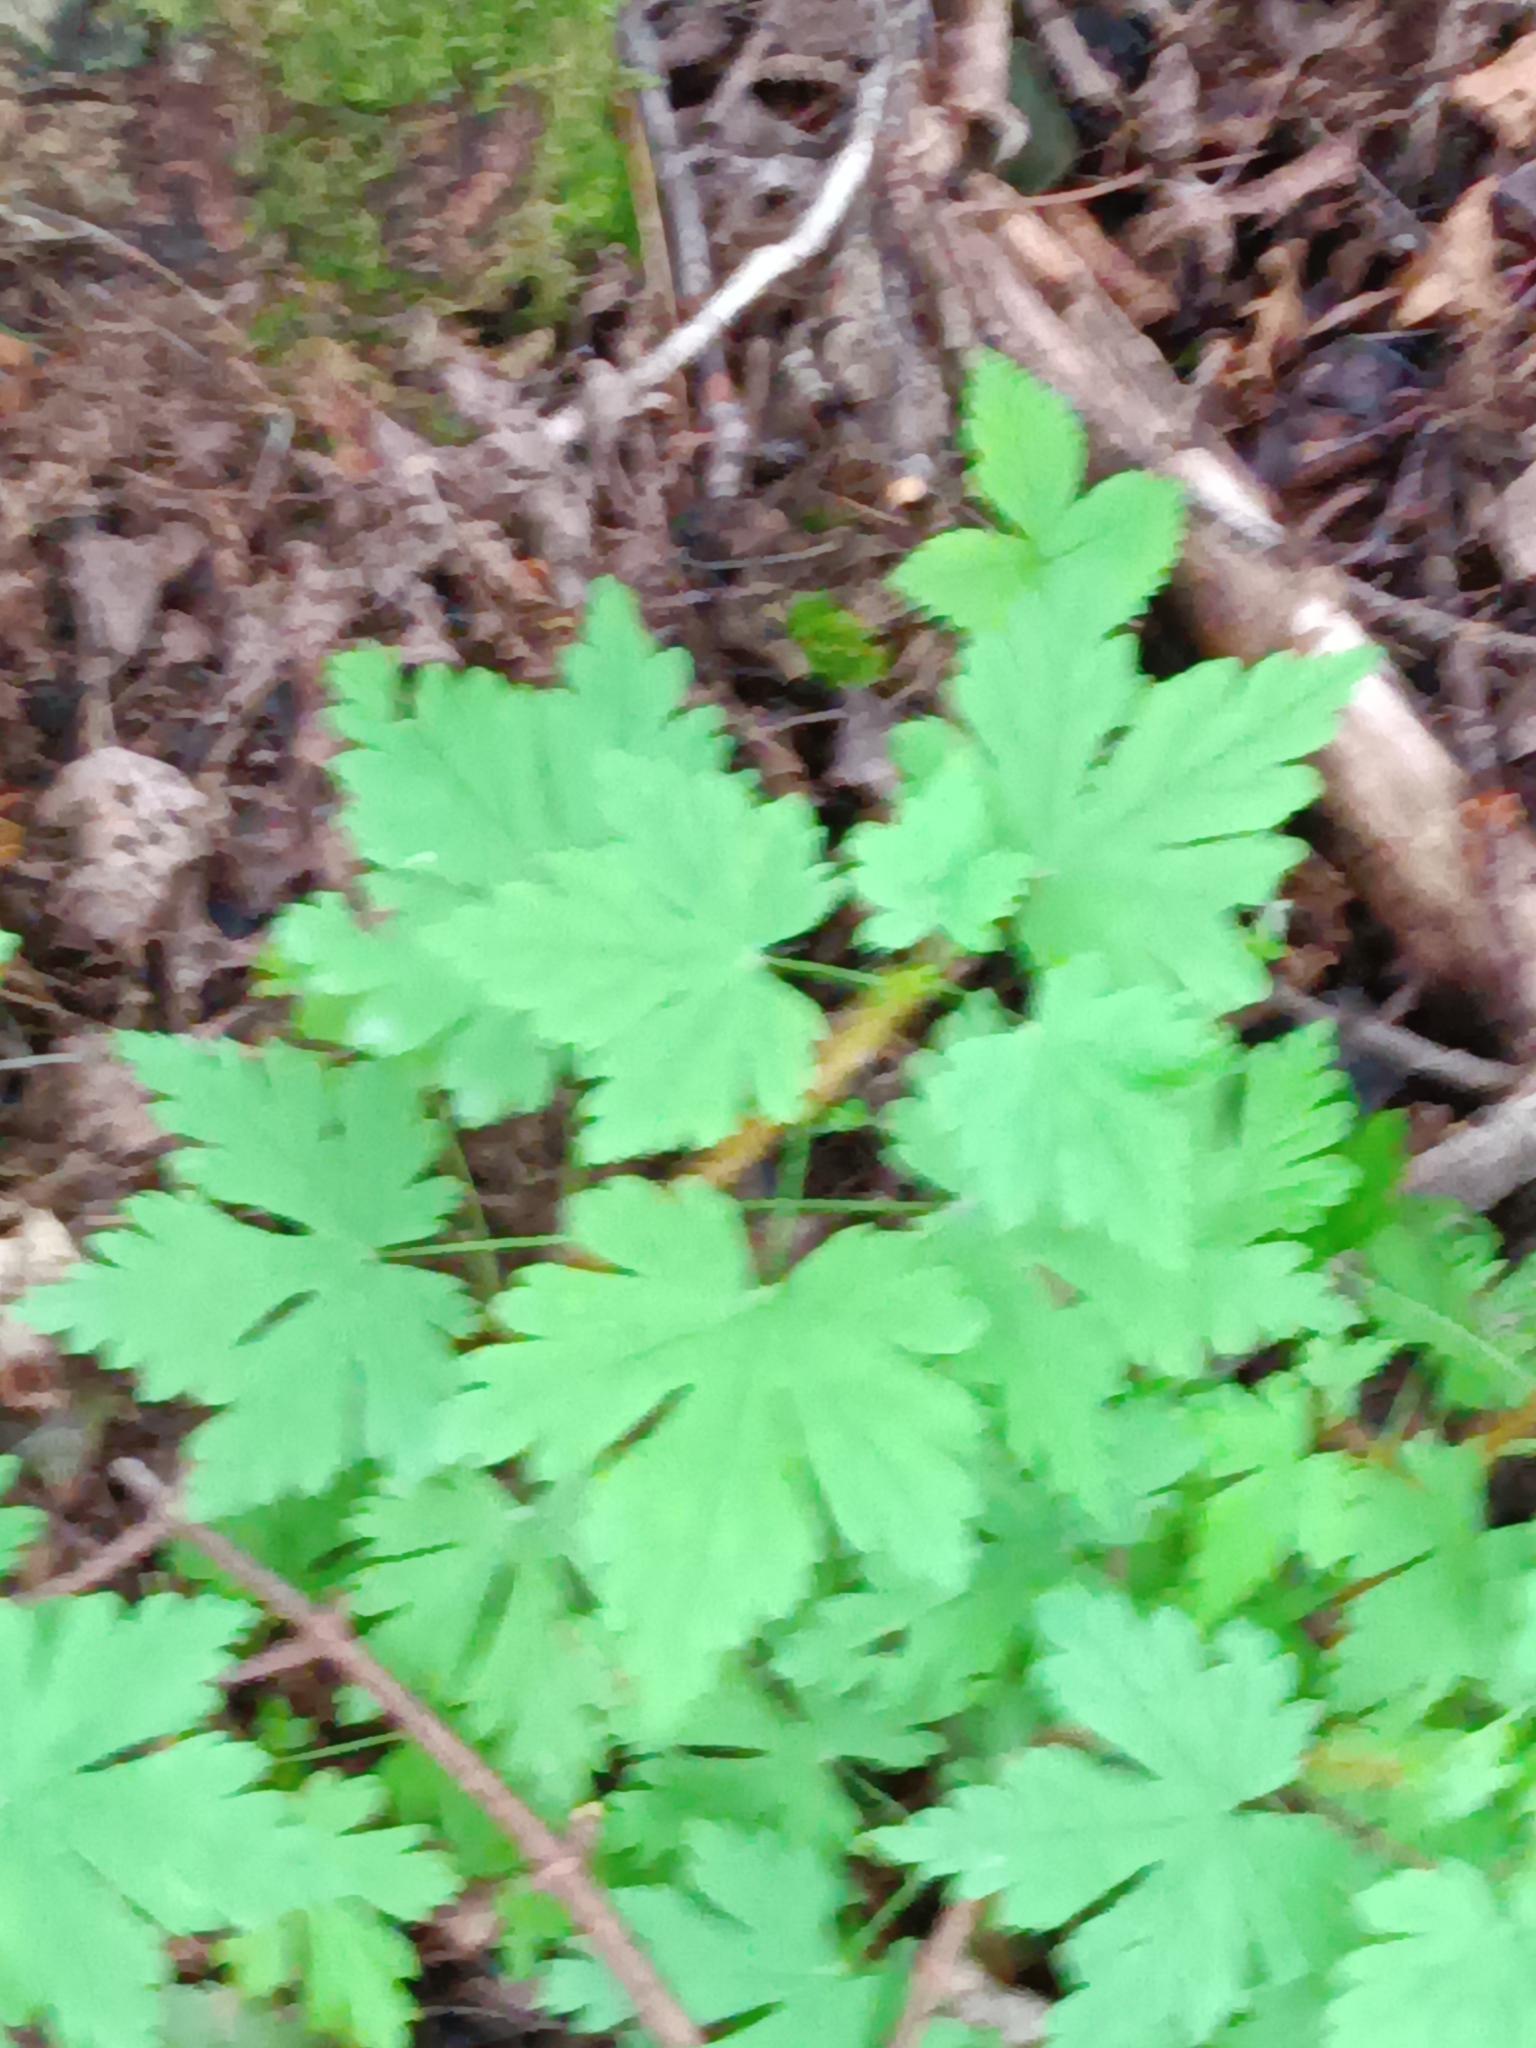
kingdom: Plantae
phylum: Tracheophyta
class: Magnoliopsida
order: Saxifragales
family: Grossulariaceae
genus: Ribes
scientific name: Ribes lacustre
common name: Black gooseberry
